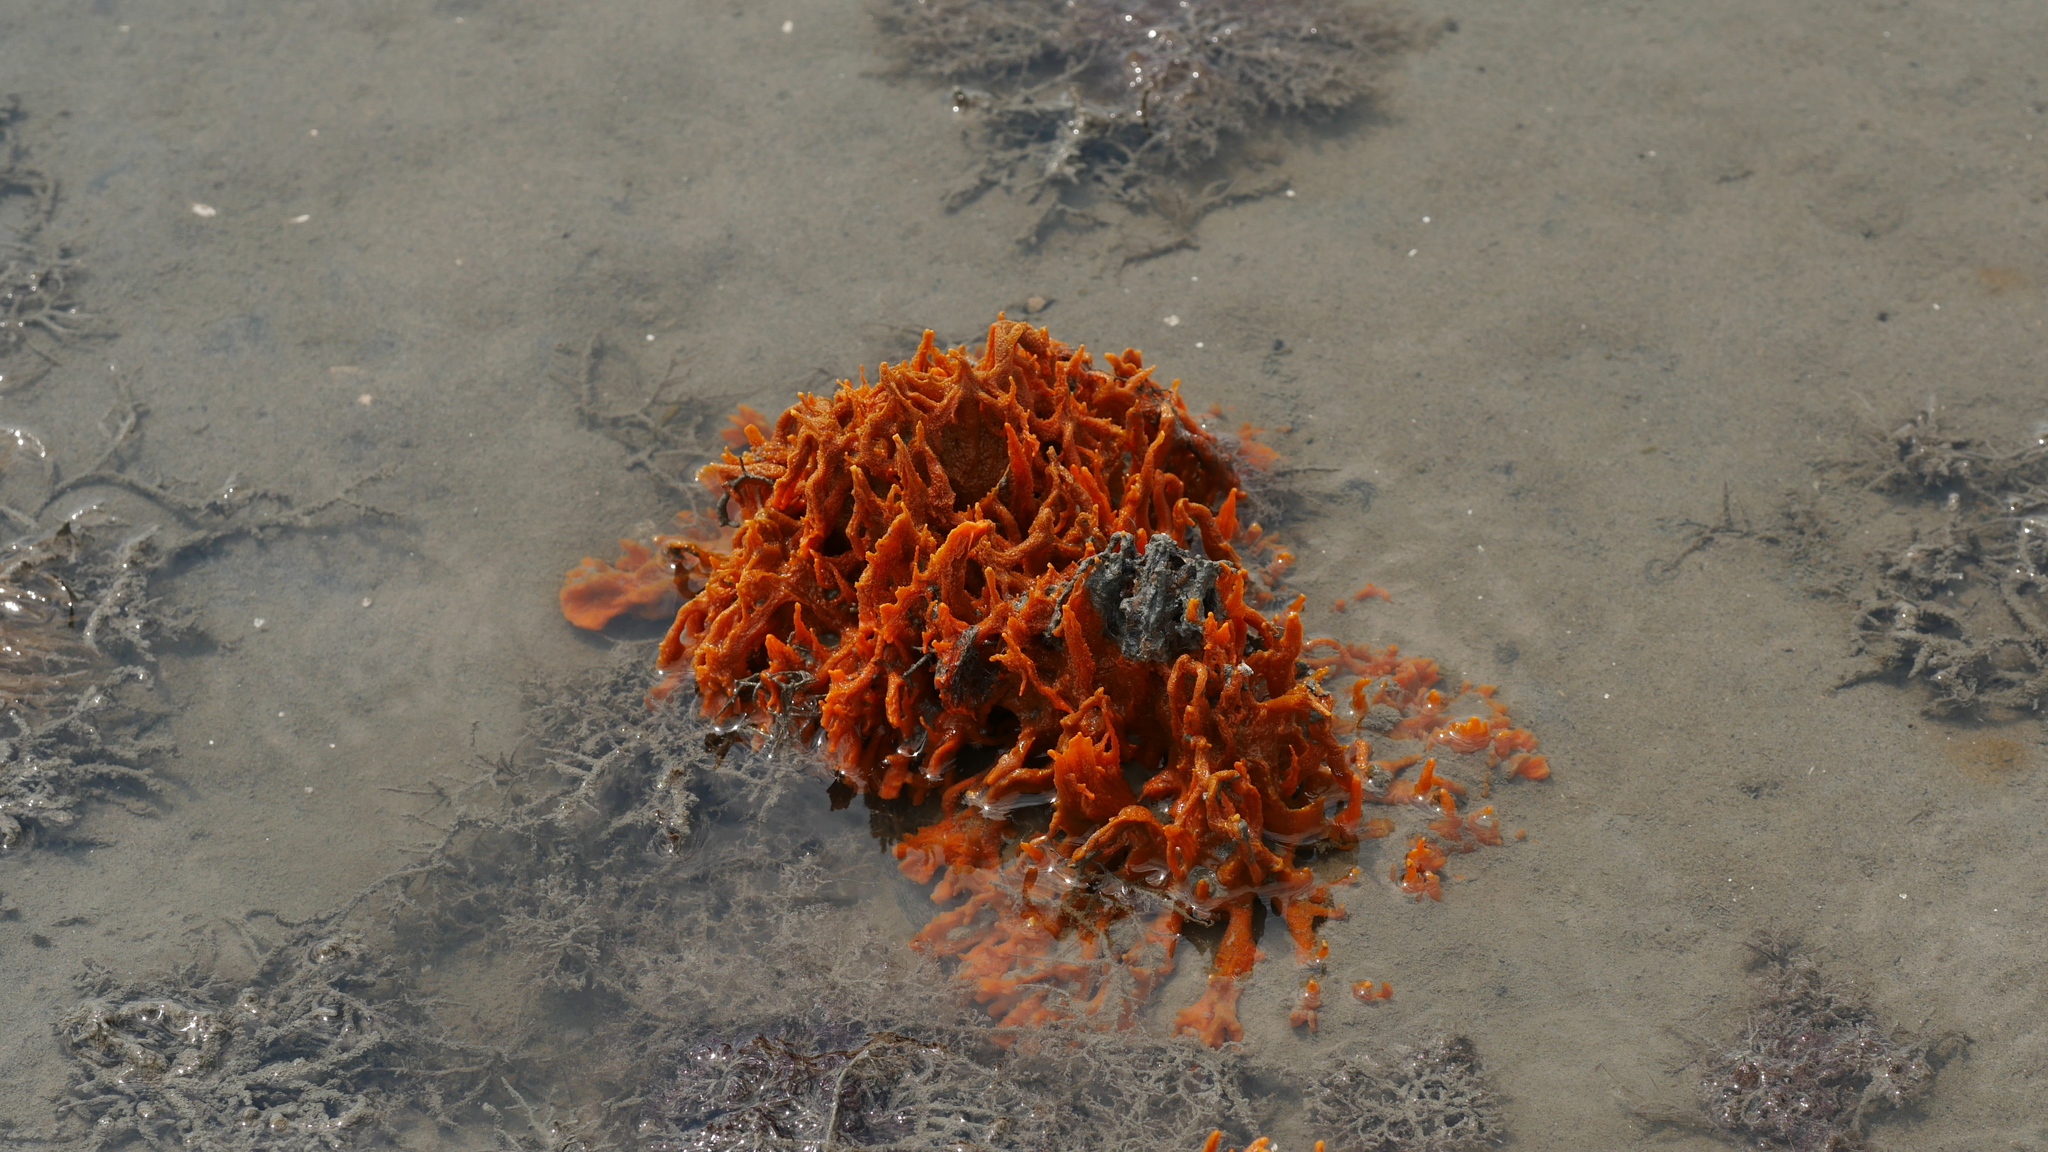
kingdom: Animalia
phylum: Porifera
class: Demospongiae
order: Suberitida
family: Halichondriidae
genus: Hymeniacidon
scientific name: Hymeniacidon heliophila
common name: Diurnal horny sponge
